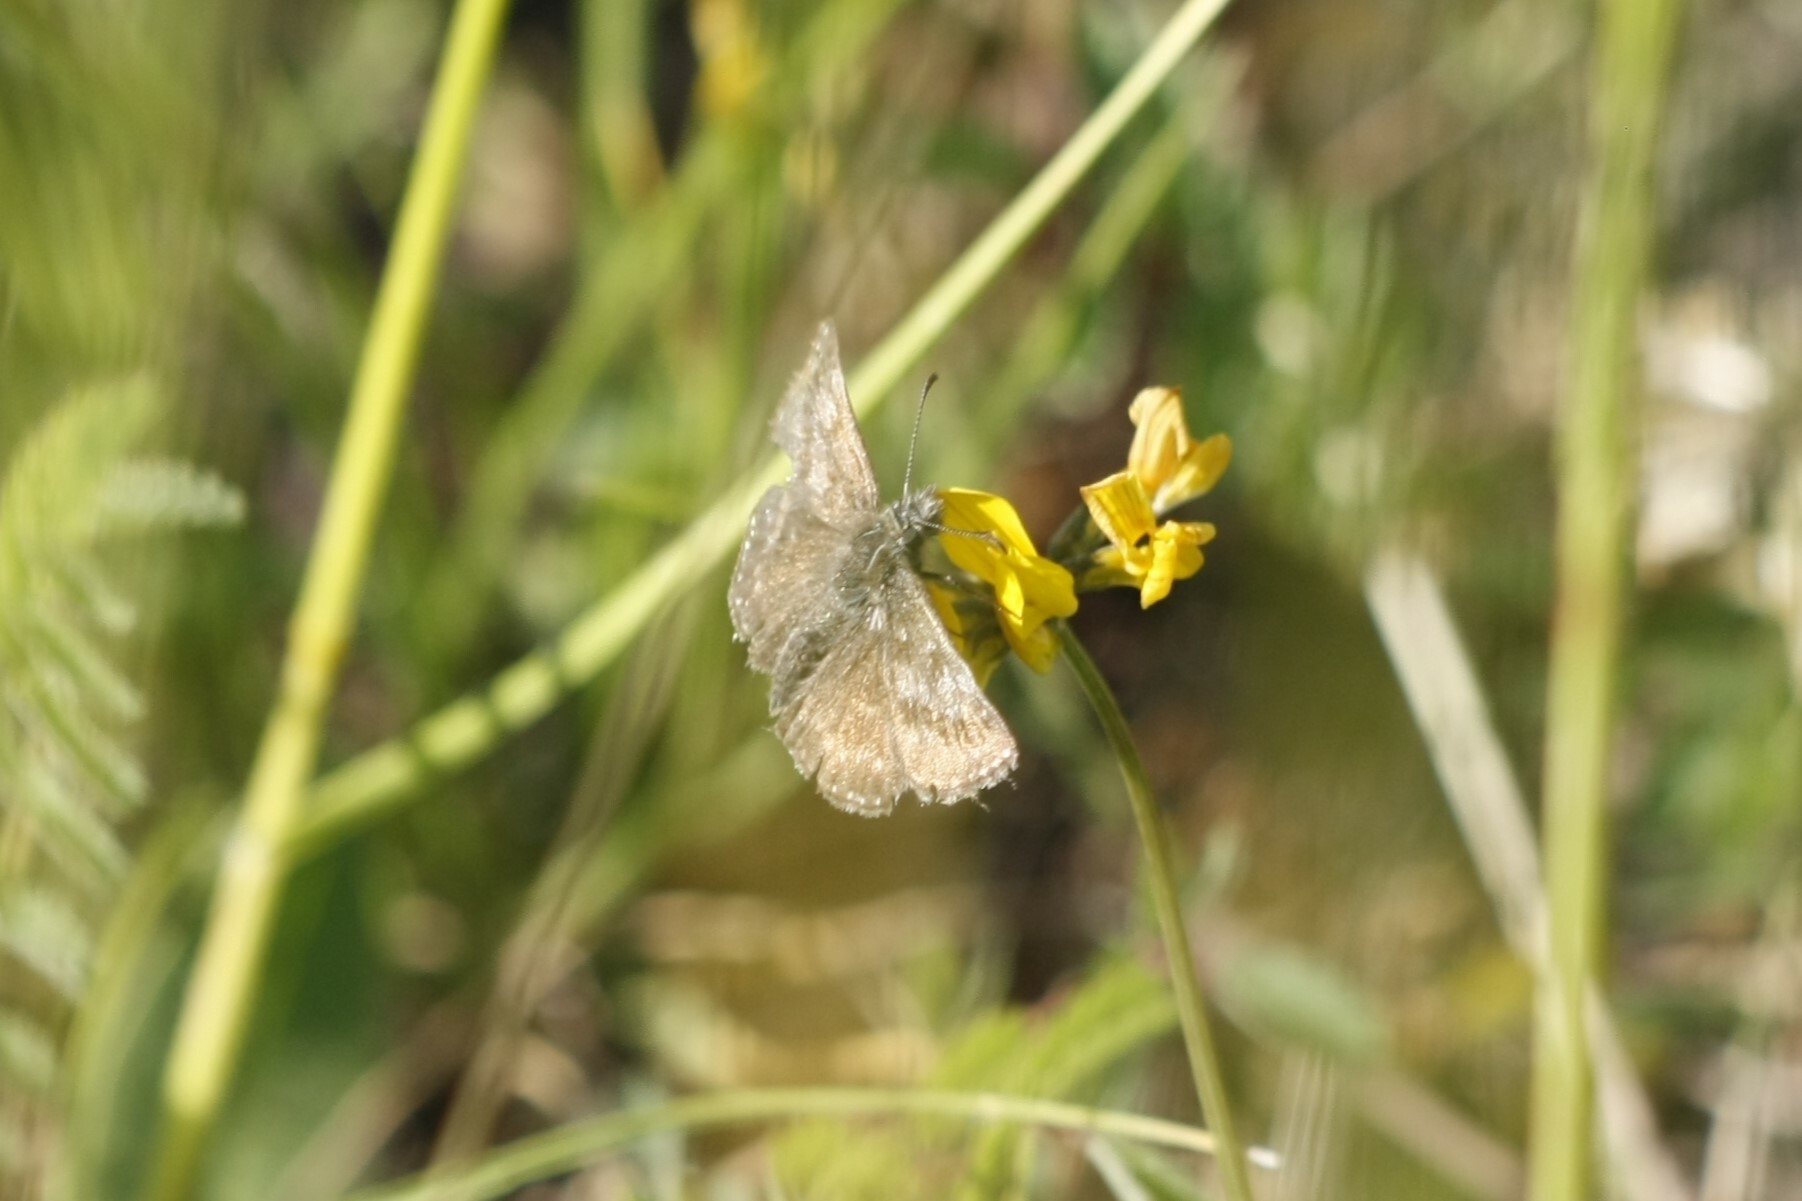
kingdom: Animalia
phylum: Arthropoda
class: Insecta
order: Lepidoptera
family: Hesperiidae
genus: Erynnis
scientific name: Erynnis tages
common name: Dingy skipper
